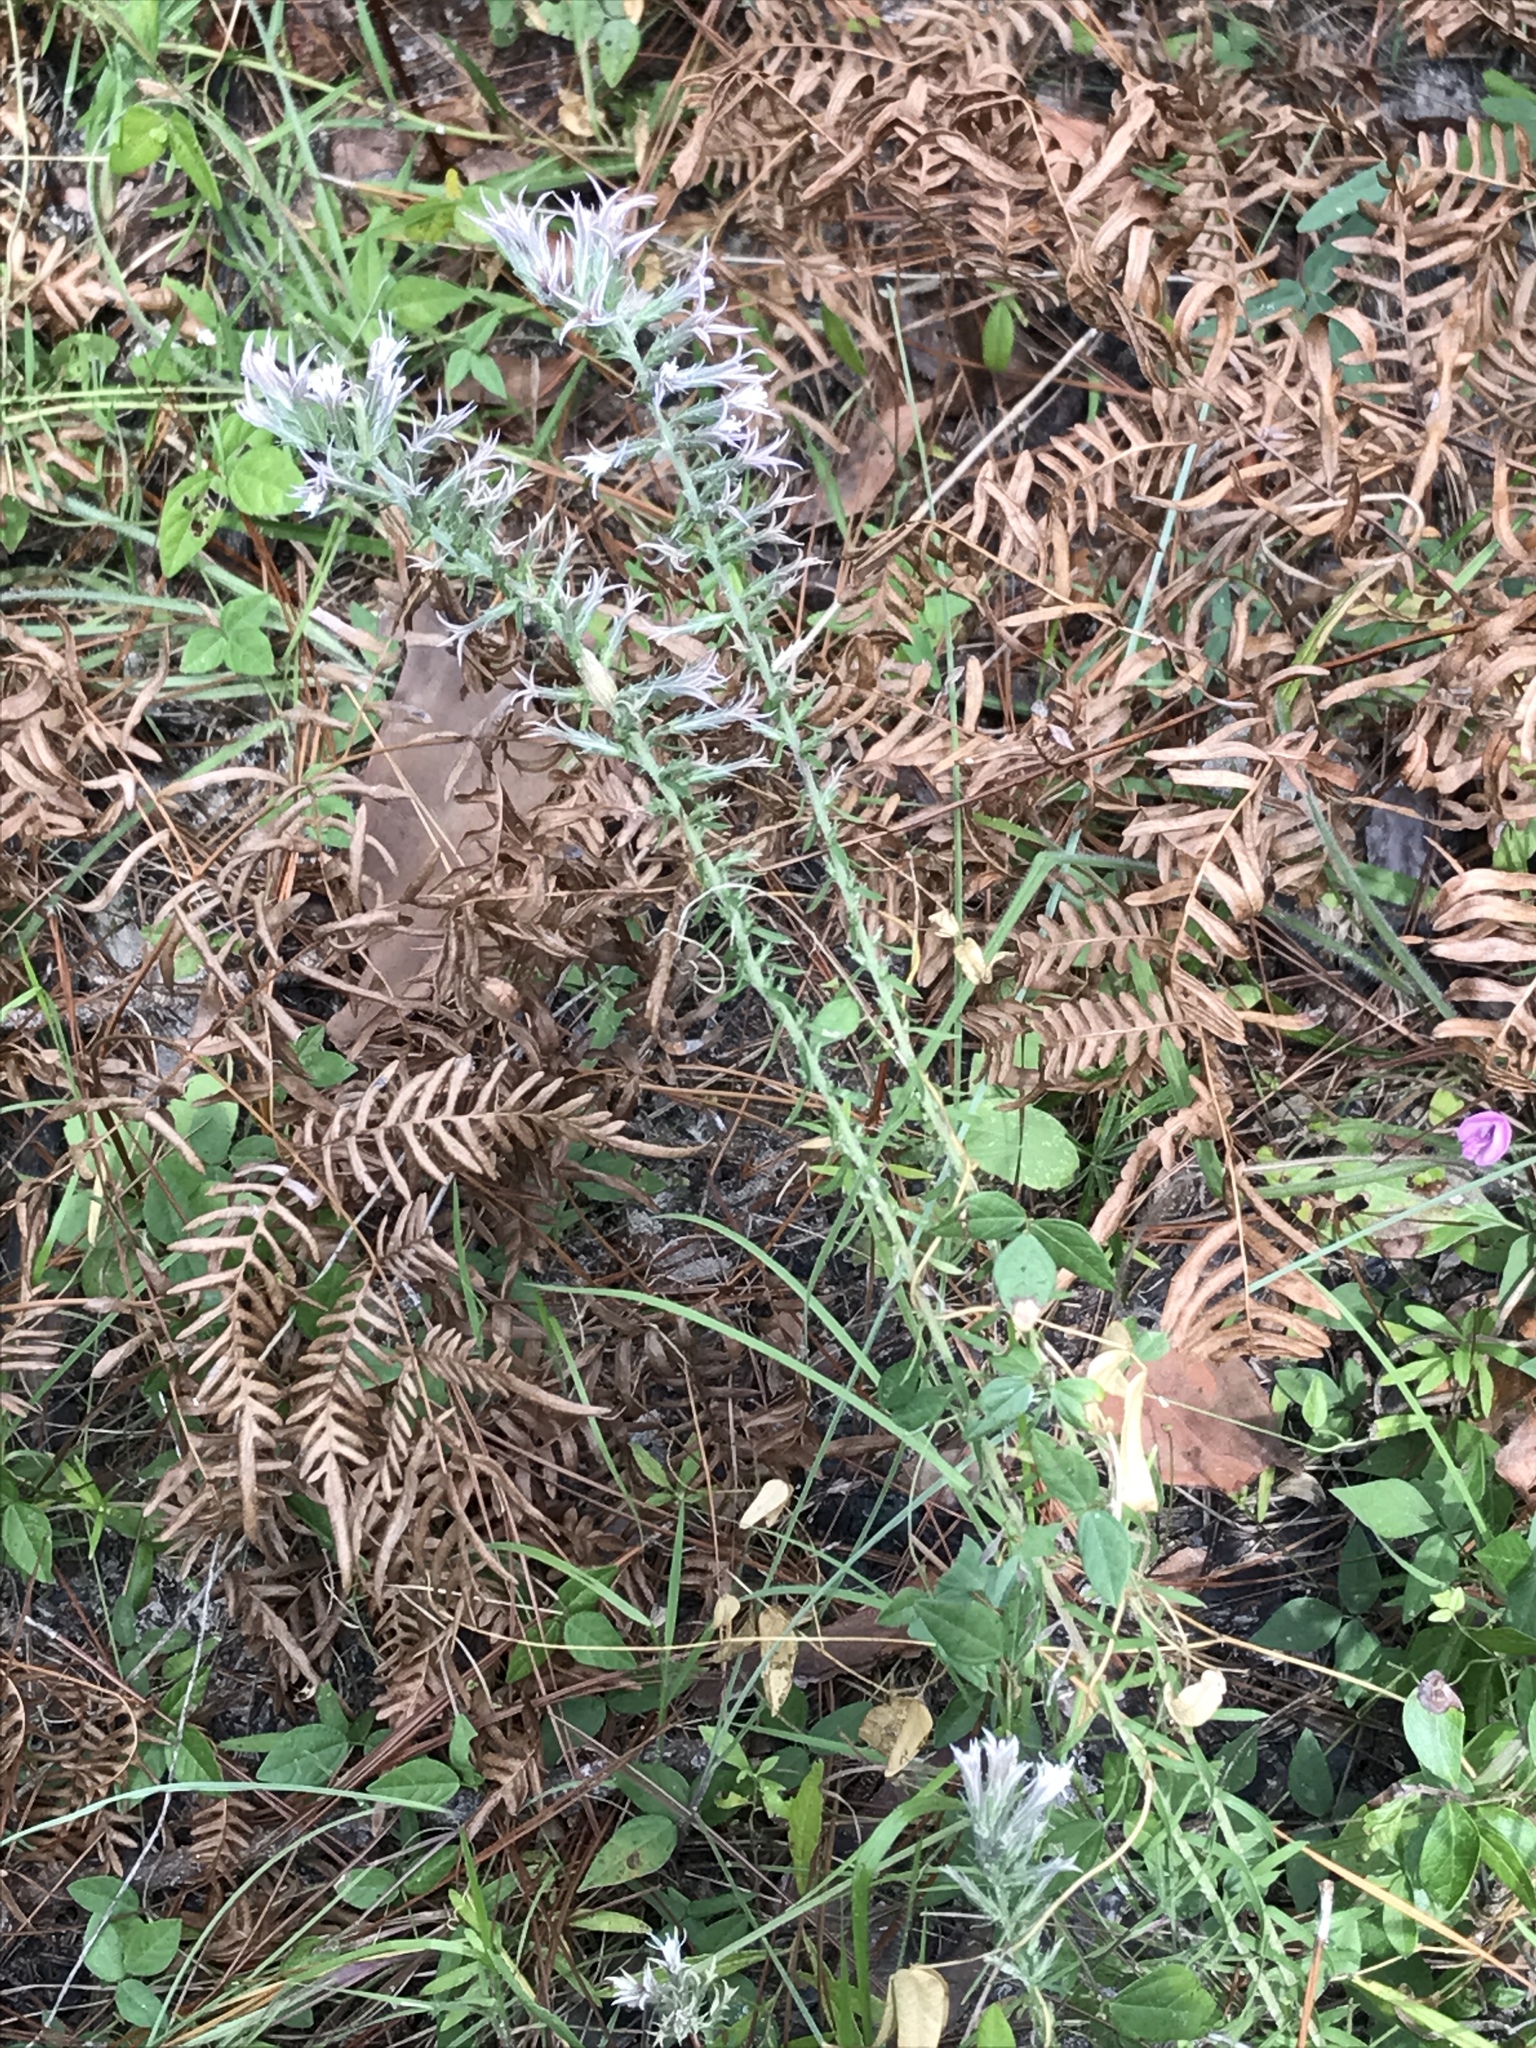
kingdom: Plantae
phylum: Tracheophyta
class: Magnoliopsida
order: Asterales
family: Asteraceae
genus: Liatris
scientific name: Liatris hesperelegans
